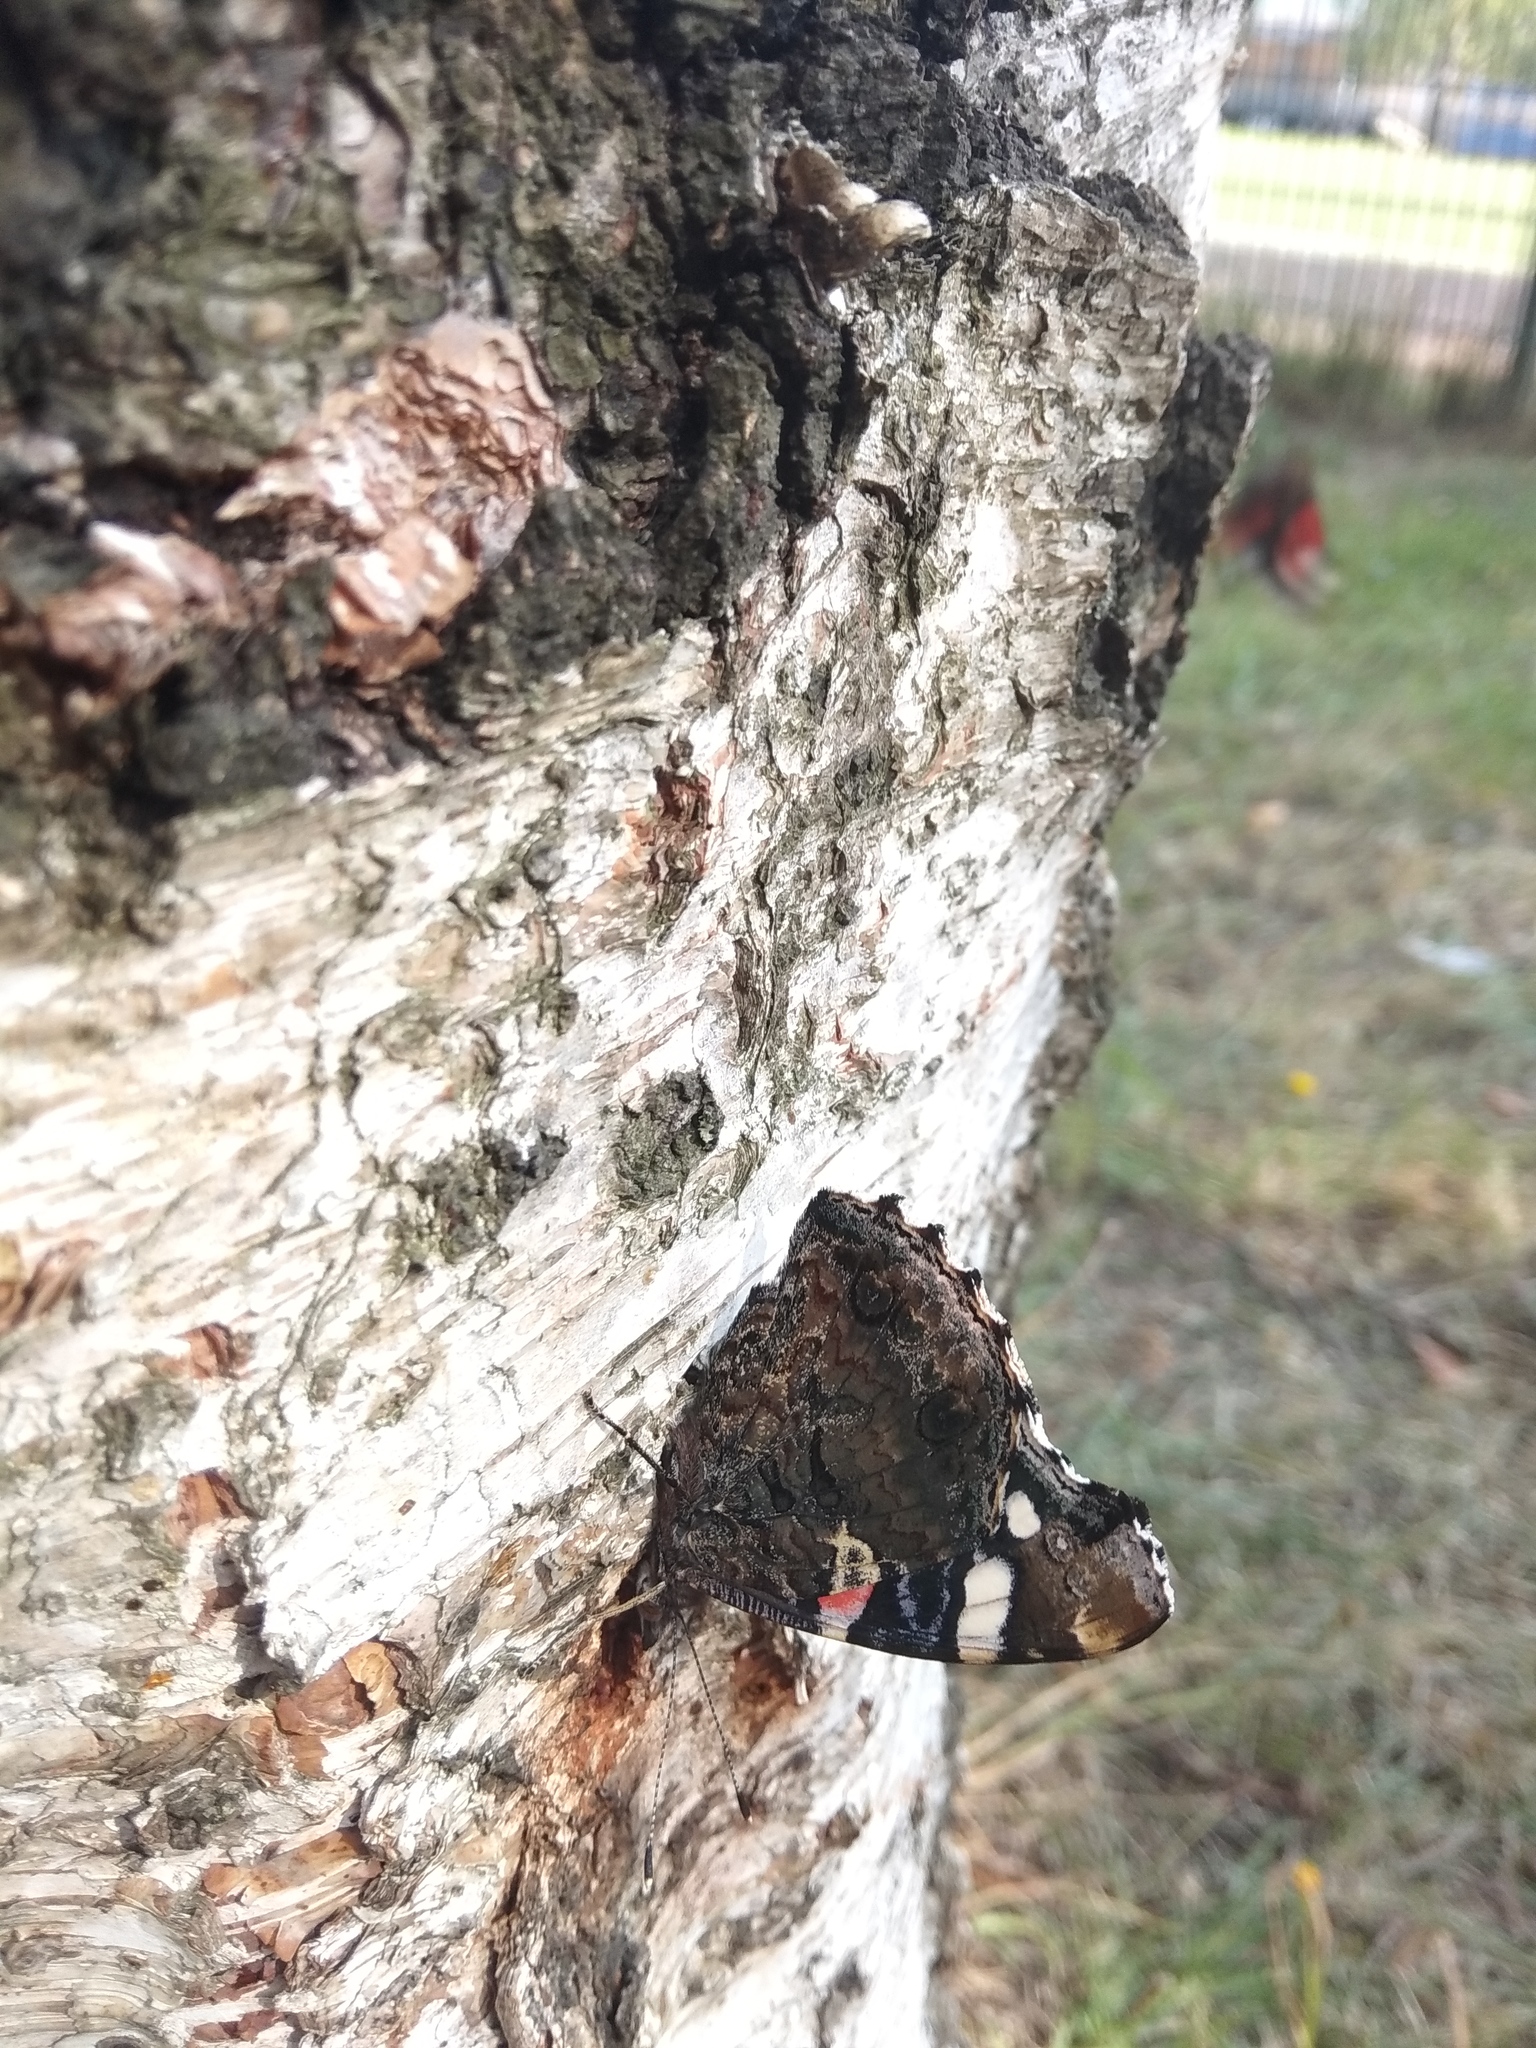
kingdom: Animalia
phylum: Arthropoda
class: Insecta
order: Lepidoptera
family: Nymphalidae
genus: Vanessa
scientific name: Vanessa atalanta
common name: Red admiral
